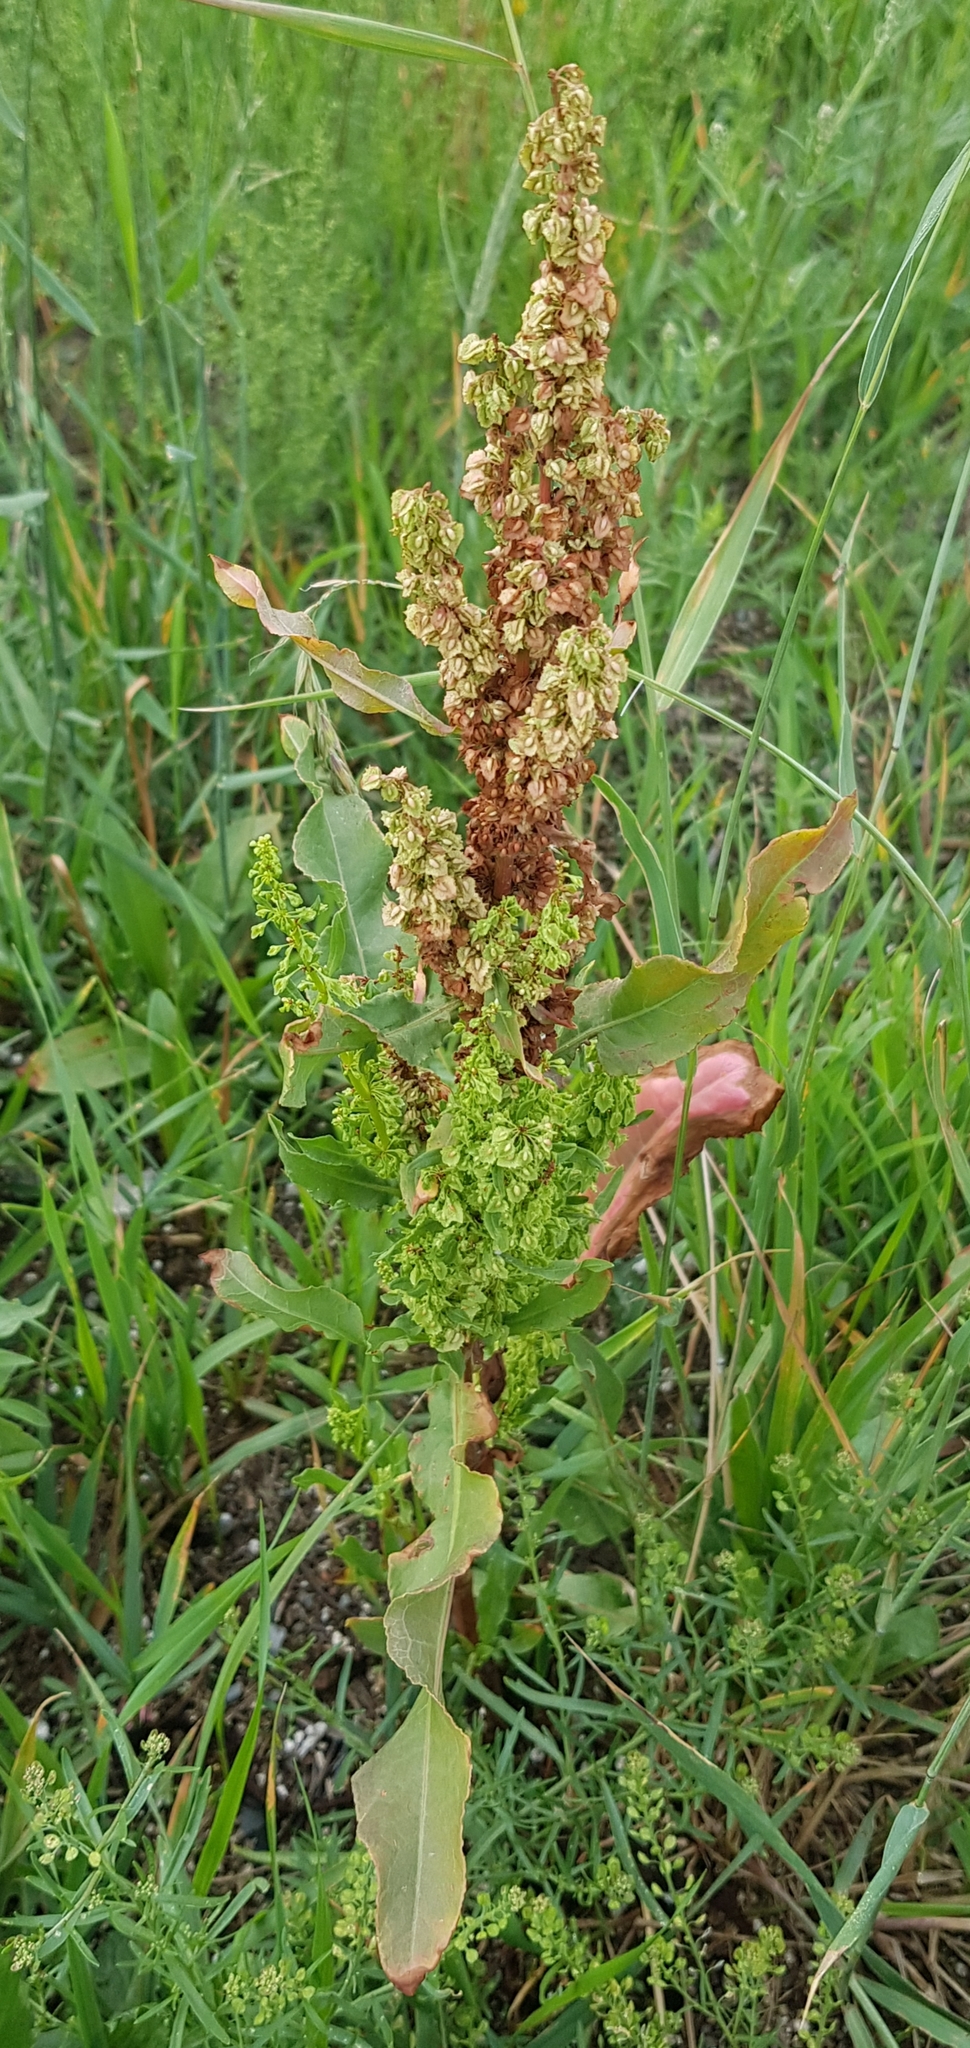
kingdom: Plantae
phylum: Tracheophyta
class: Magnoliopsida
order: Caryophyllales
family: Polygonaceae
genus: Rumex
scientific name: Rumex crispus
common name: Curled dock
